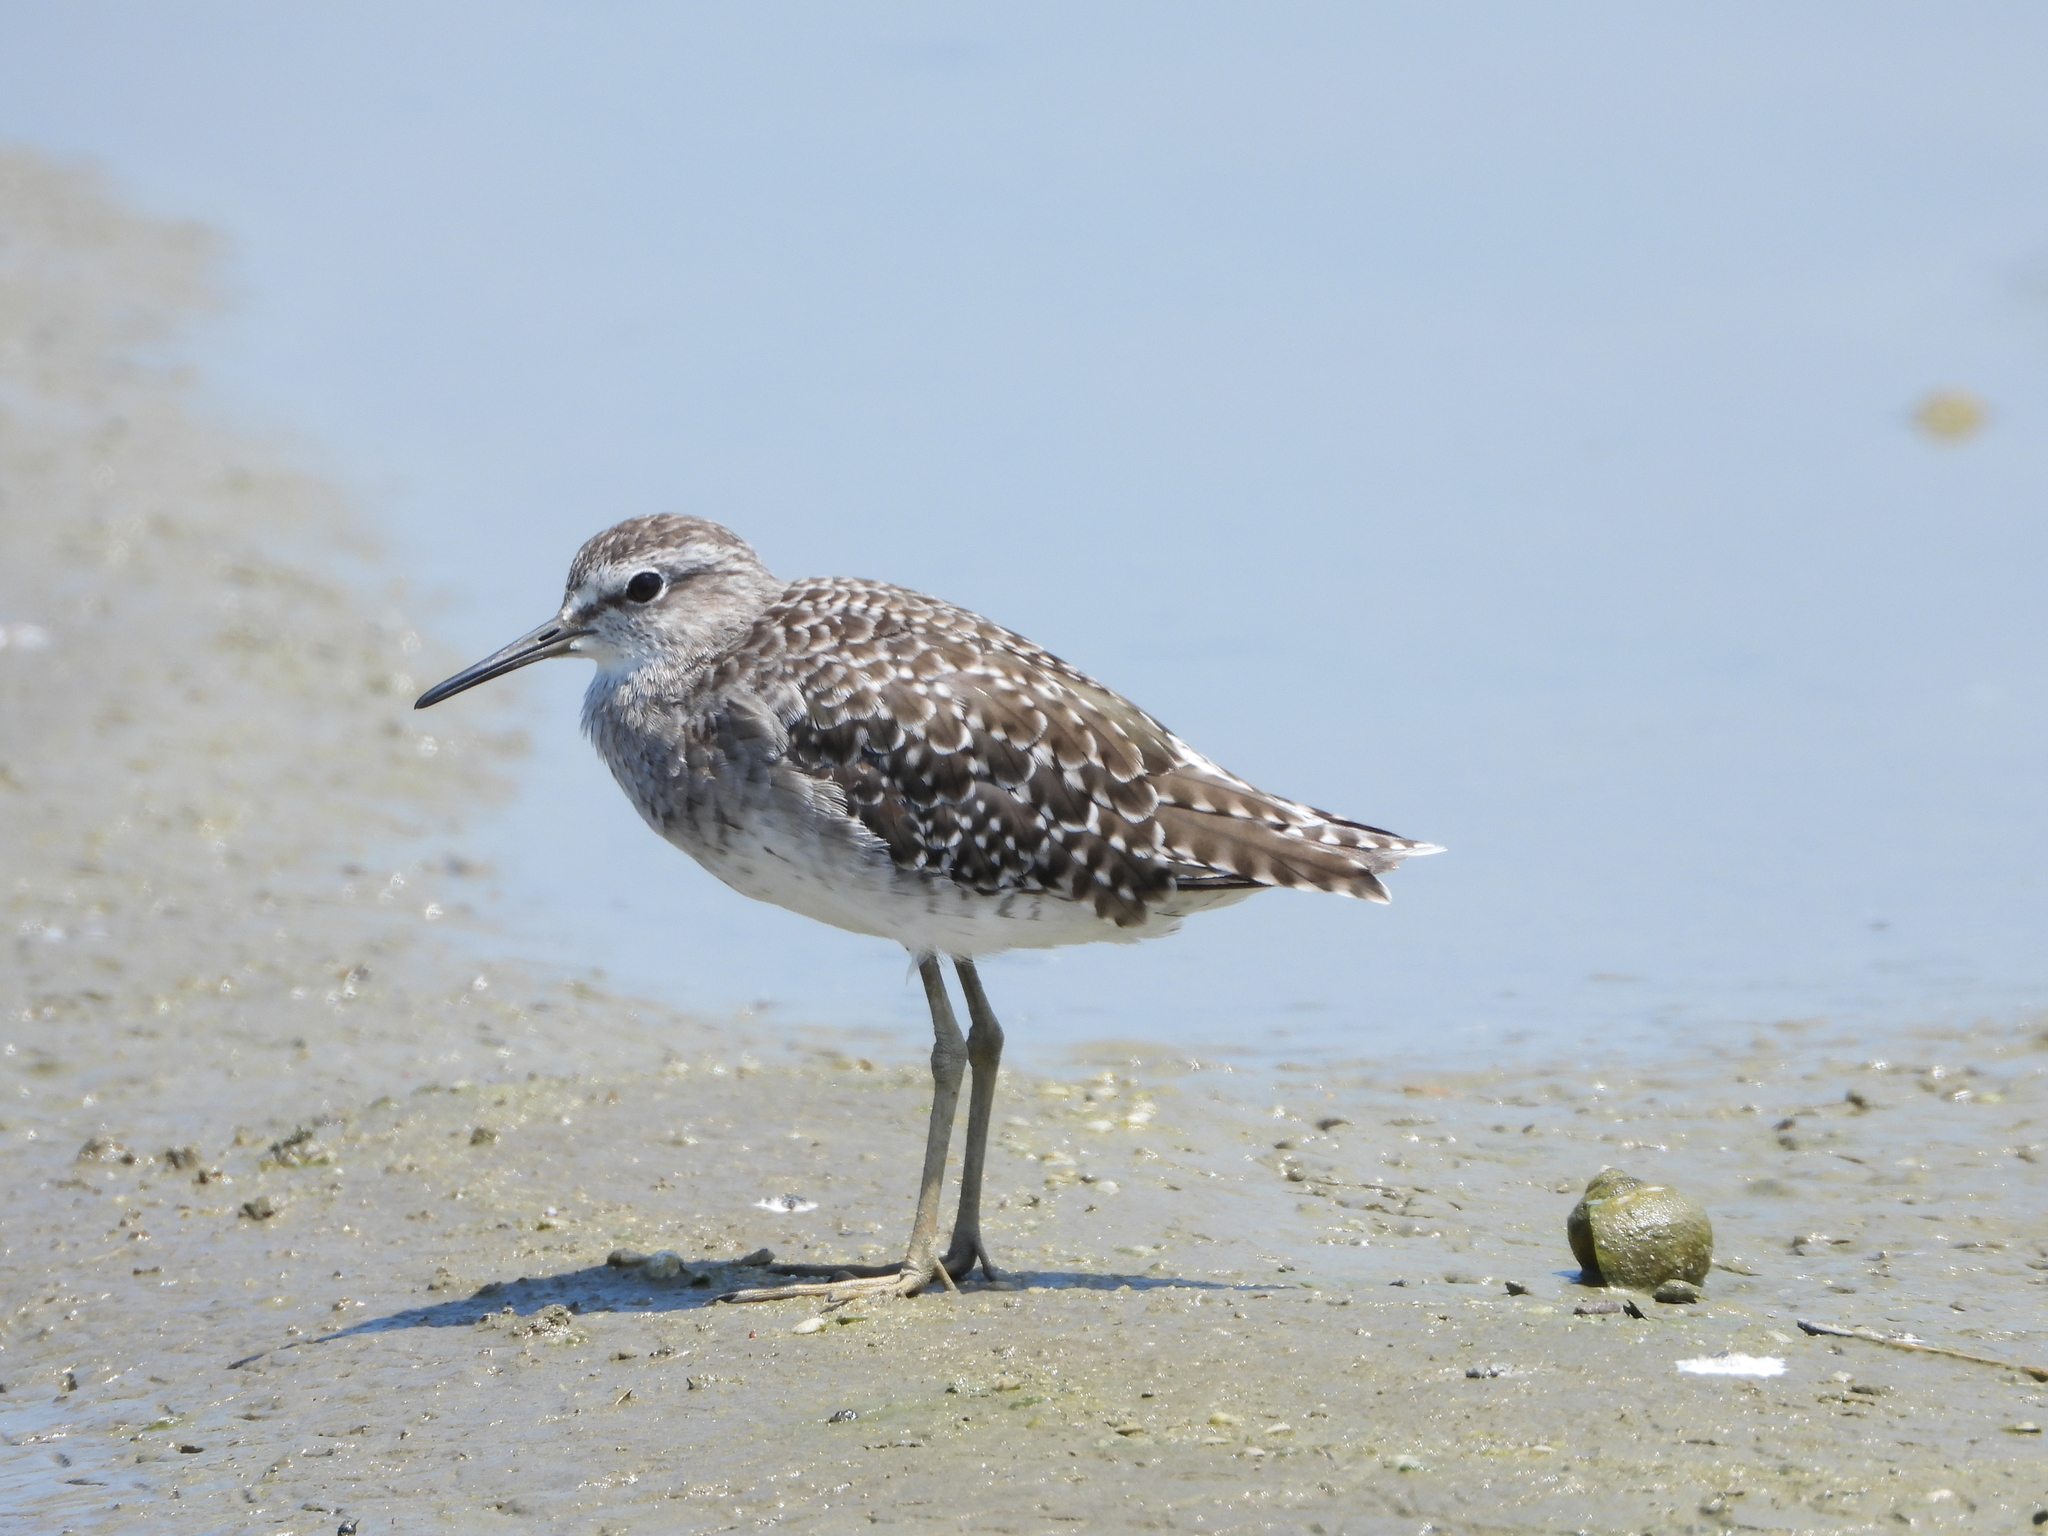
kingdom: Animalia
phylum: Chordata
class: Aves
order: Charadriiformes
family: Scolopacidae
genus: Tringa
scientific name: Tringa glareola
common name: Wood sandpiper
